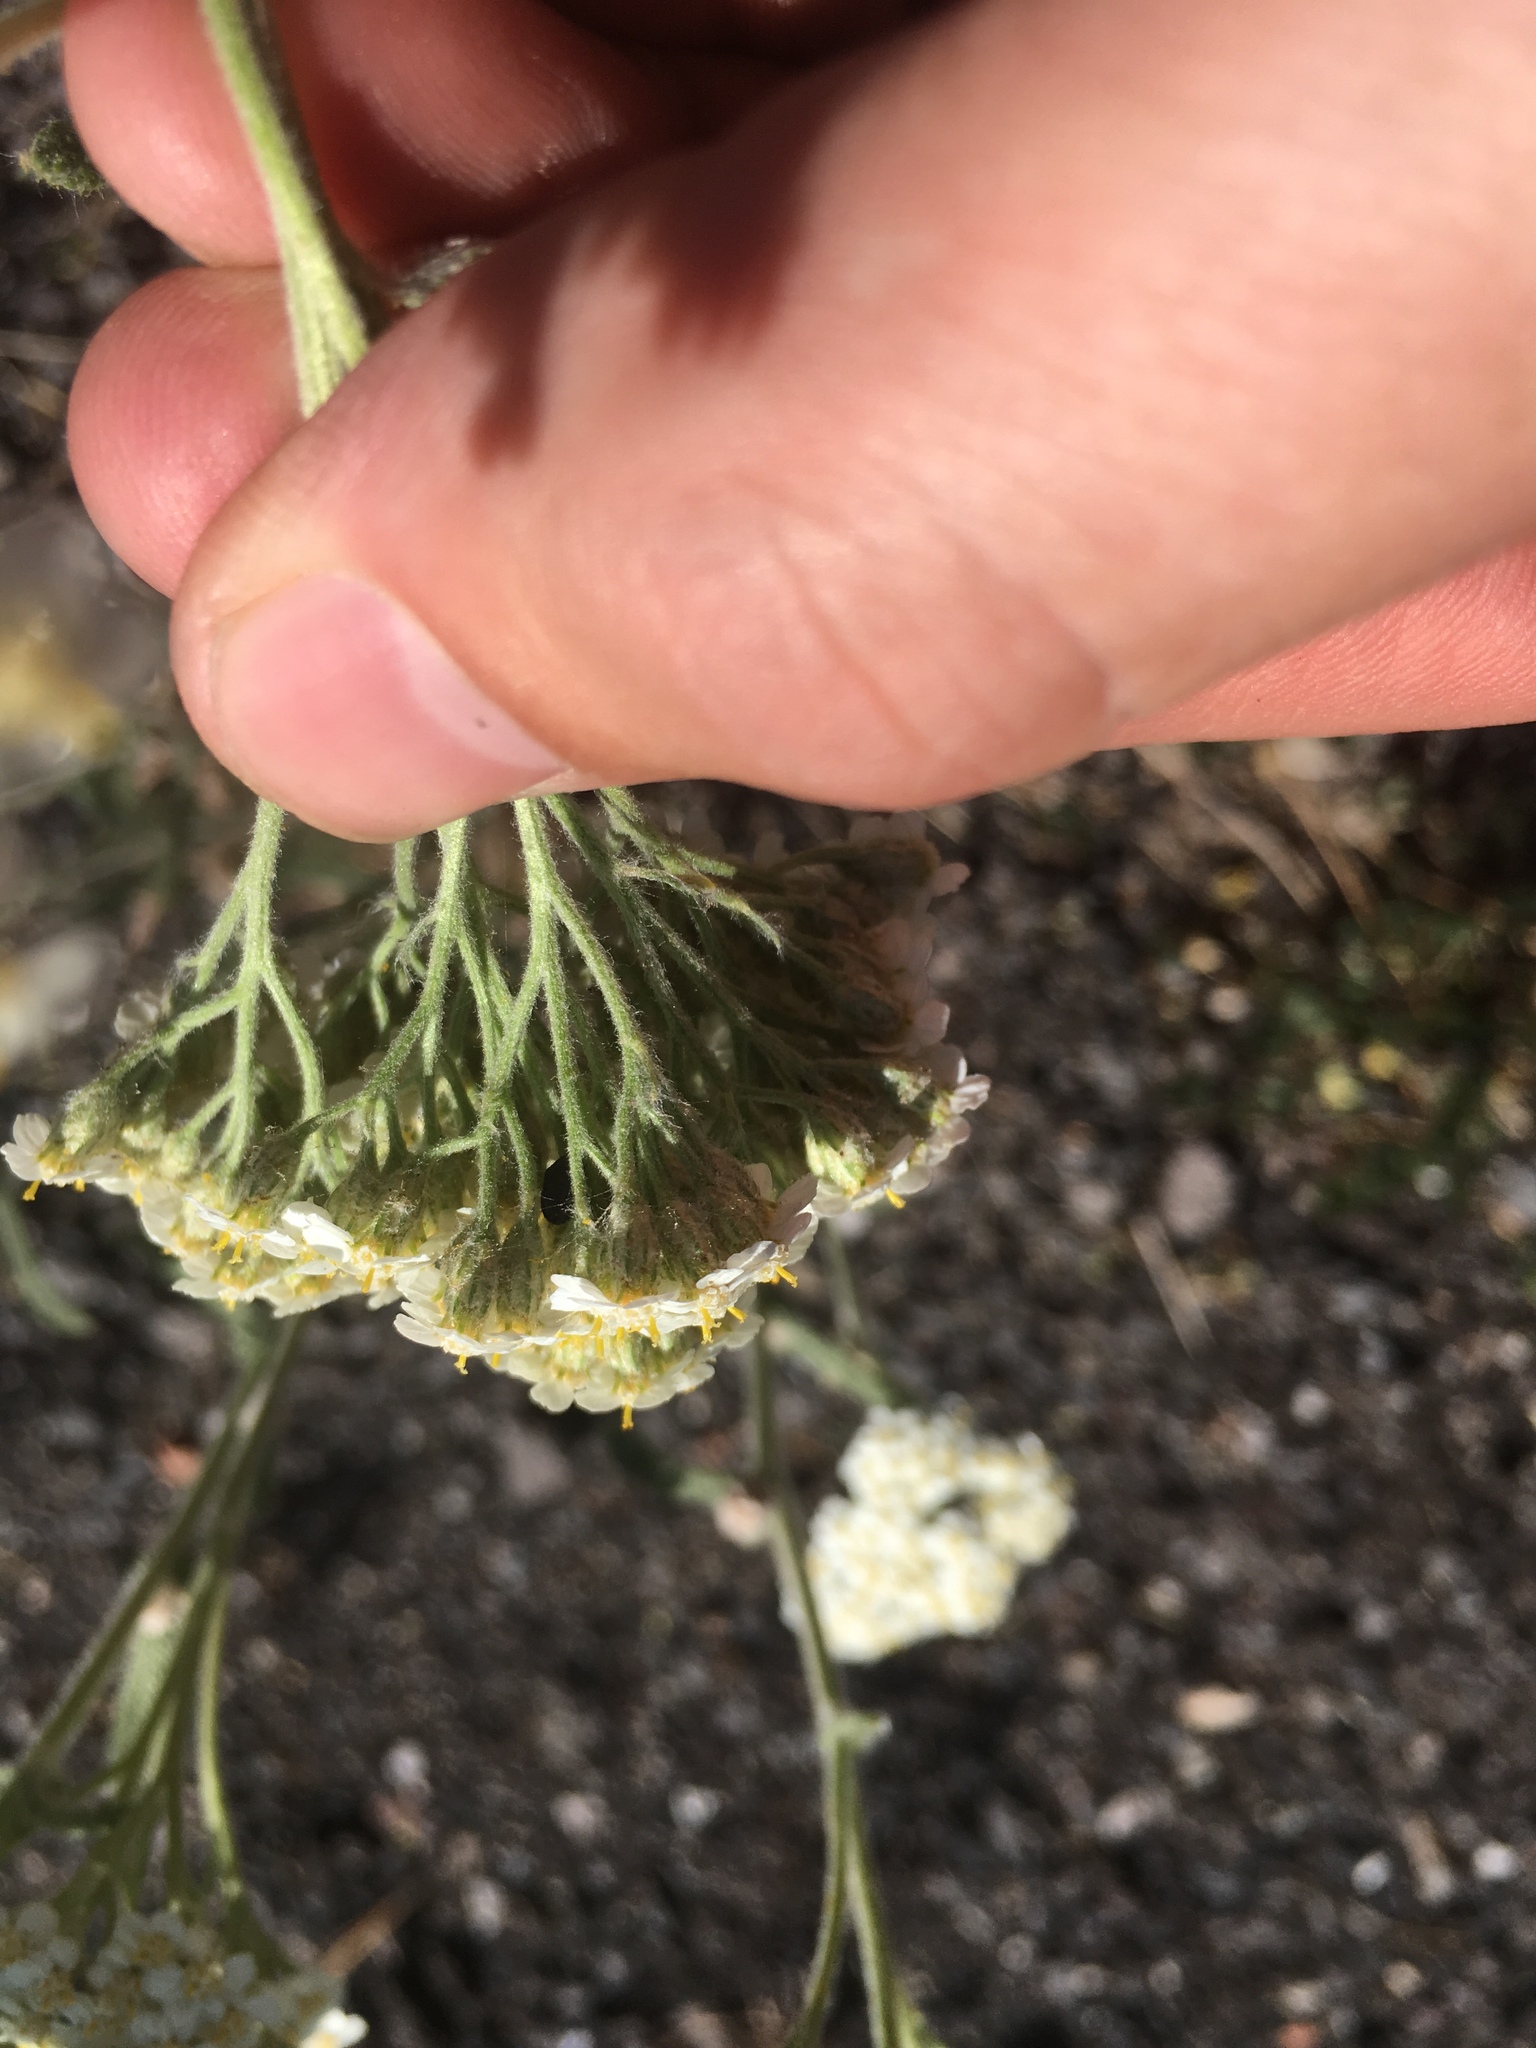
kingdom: Plantae
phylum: Tracheophyta
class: Magnoliopsida
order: Asterales
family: Asteraceae
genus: Achillea
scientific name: Achillea millefolium
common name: Yarrow
